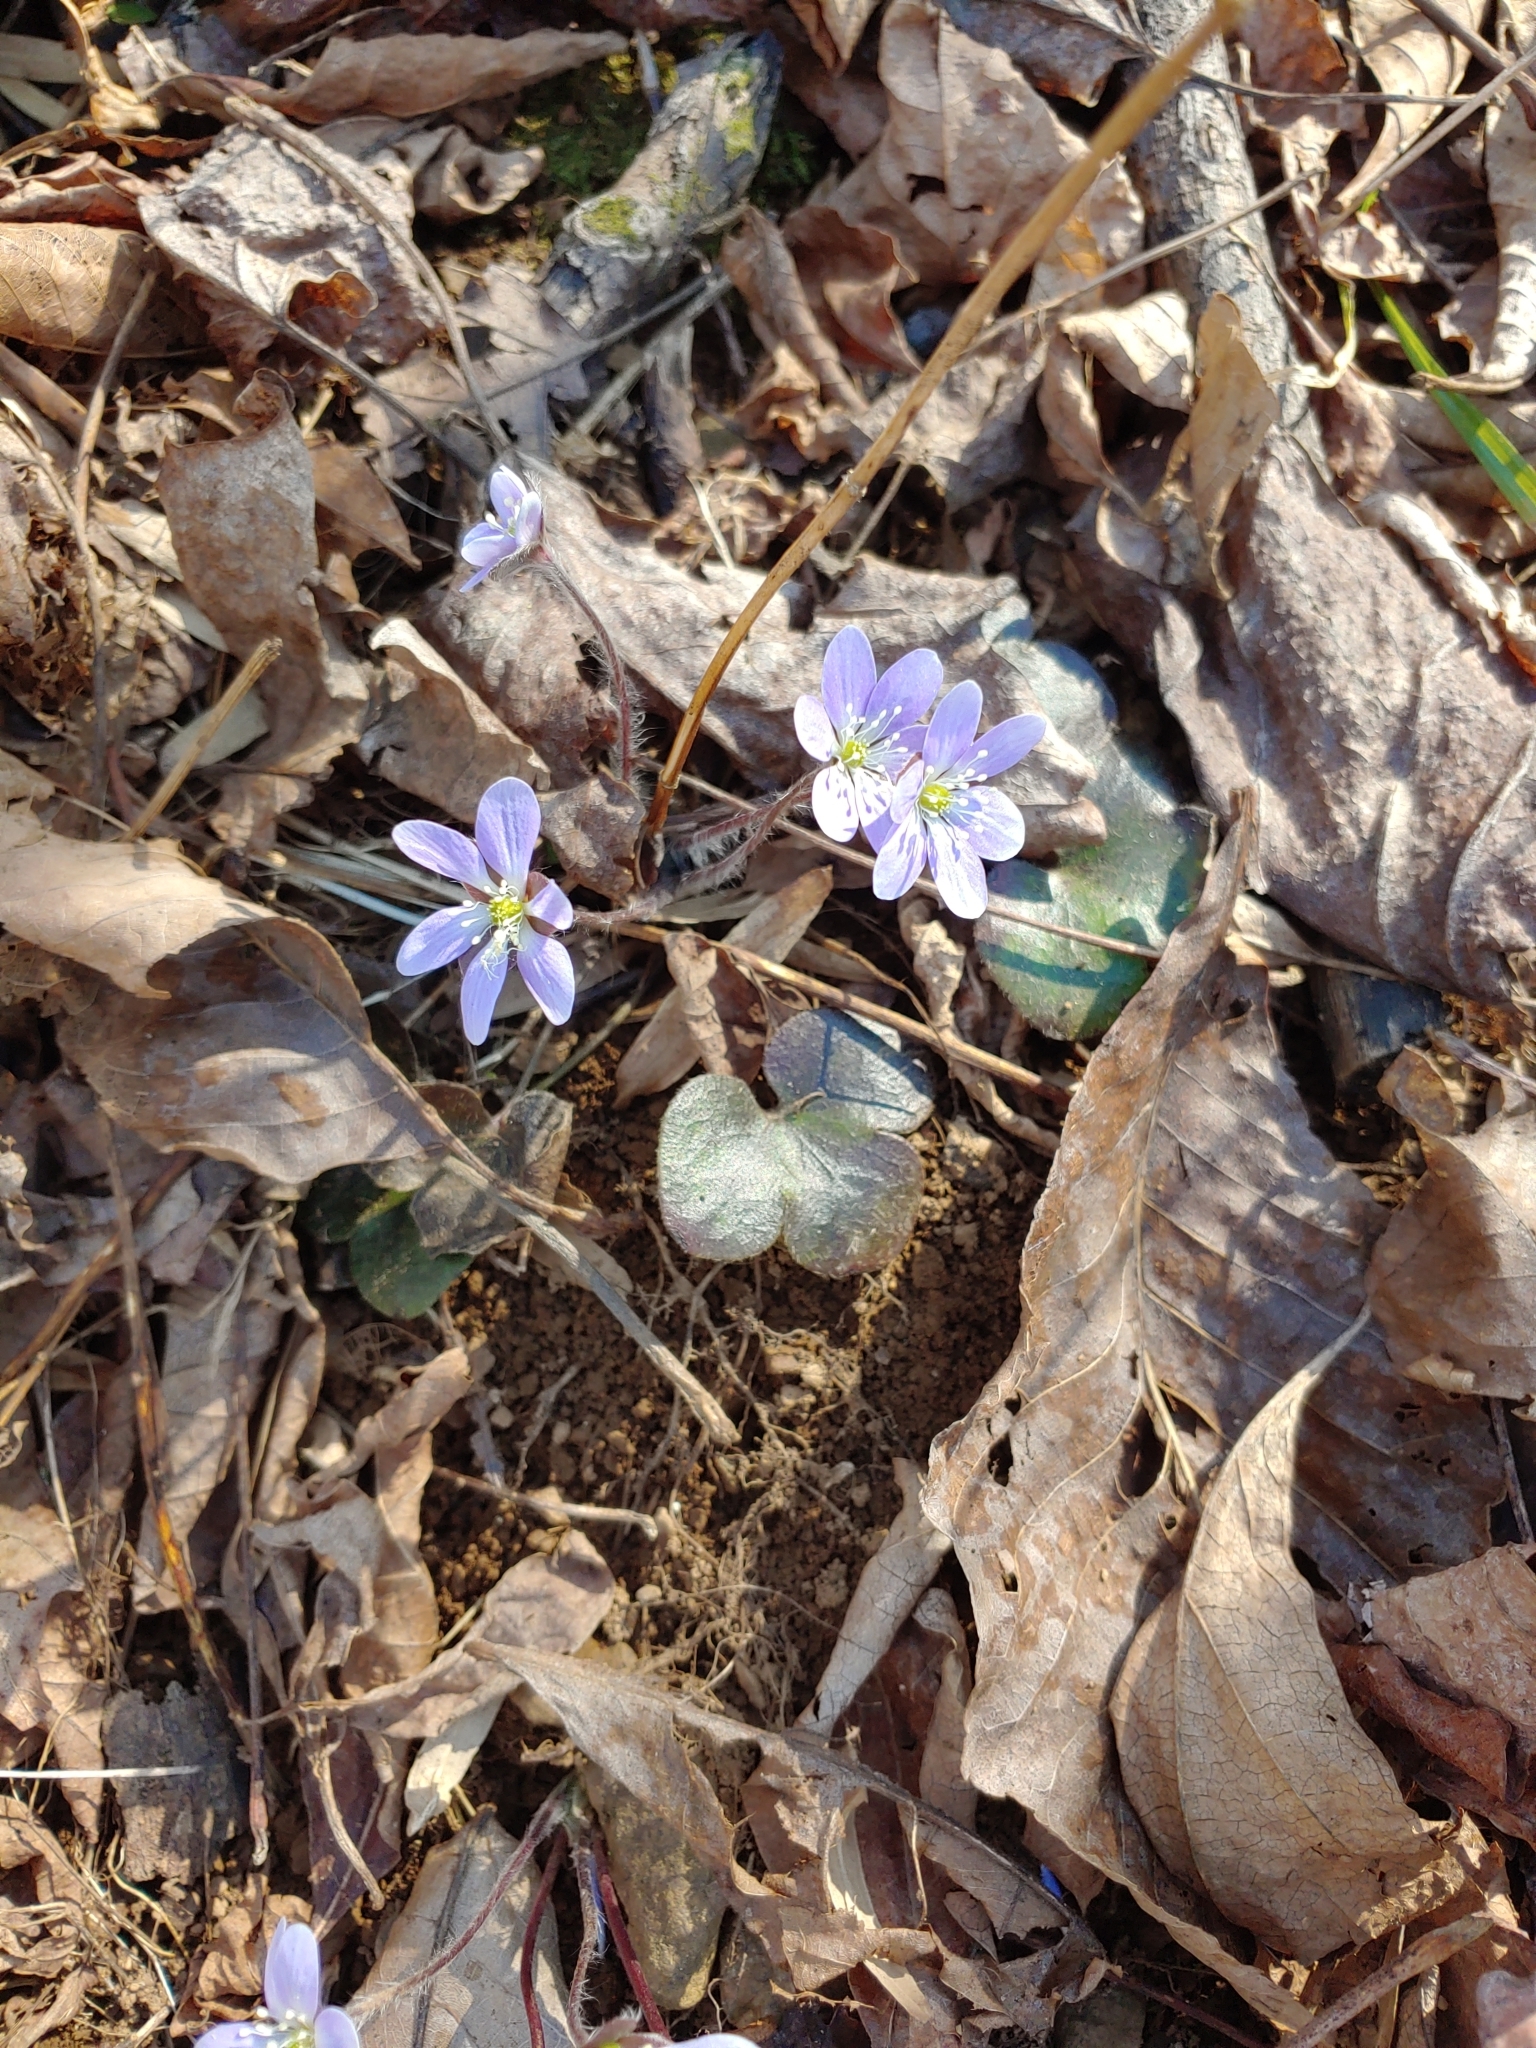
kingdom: Plantae
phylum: Tracheophyta
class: Magnoliopsida
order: Ranunculales
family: Ranunculaceae
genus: Hepatica
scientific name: Hepatica americana
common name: American hepatica
